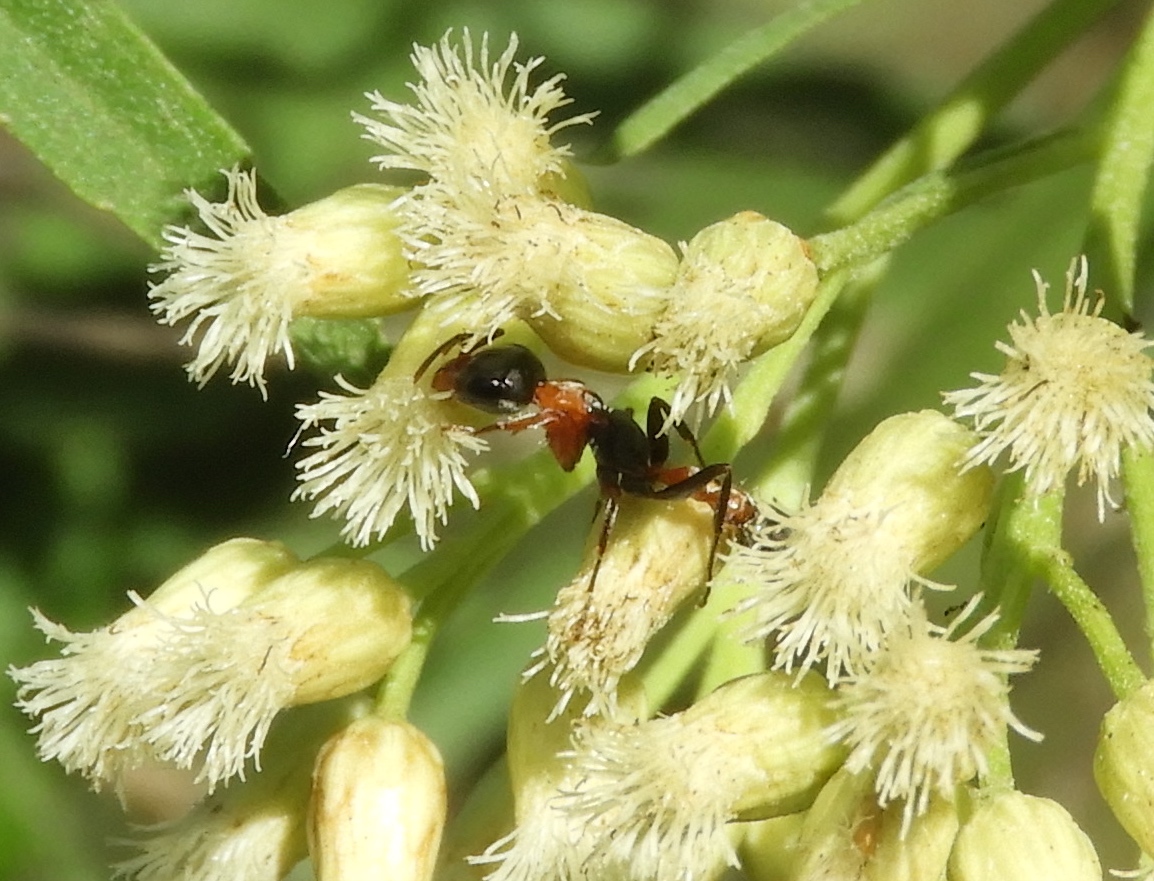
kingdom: Animalia
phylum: Arthropoda
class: Insecta
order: Hymenoptera
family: Formicidae
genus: Pseudomyrmex
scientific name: Pseudomyrmex gracilis
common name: Graceful twig ant
